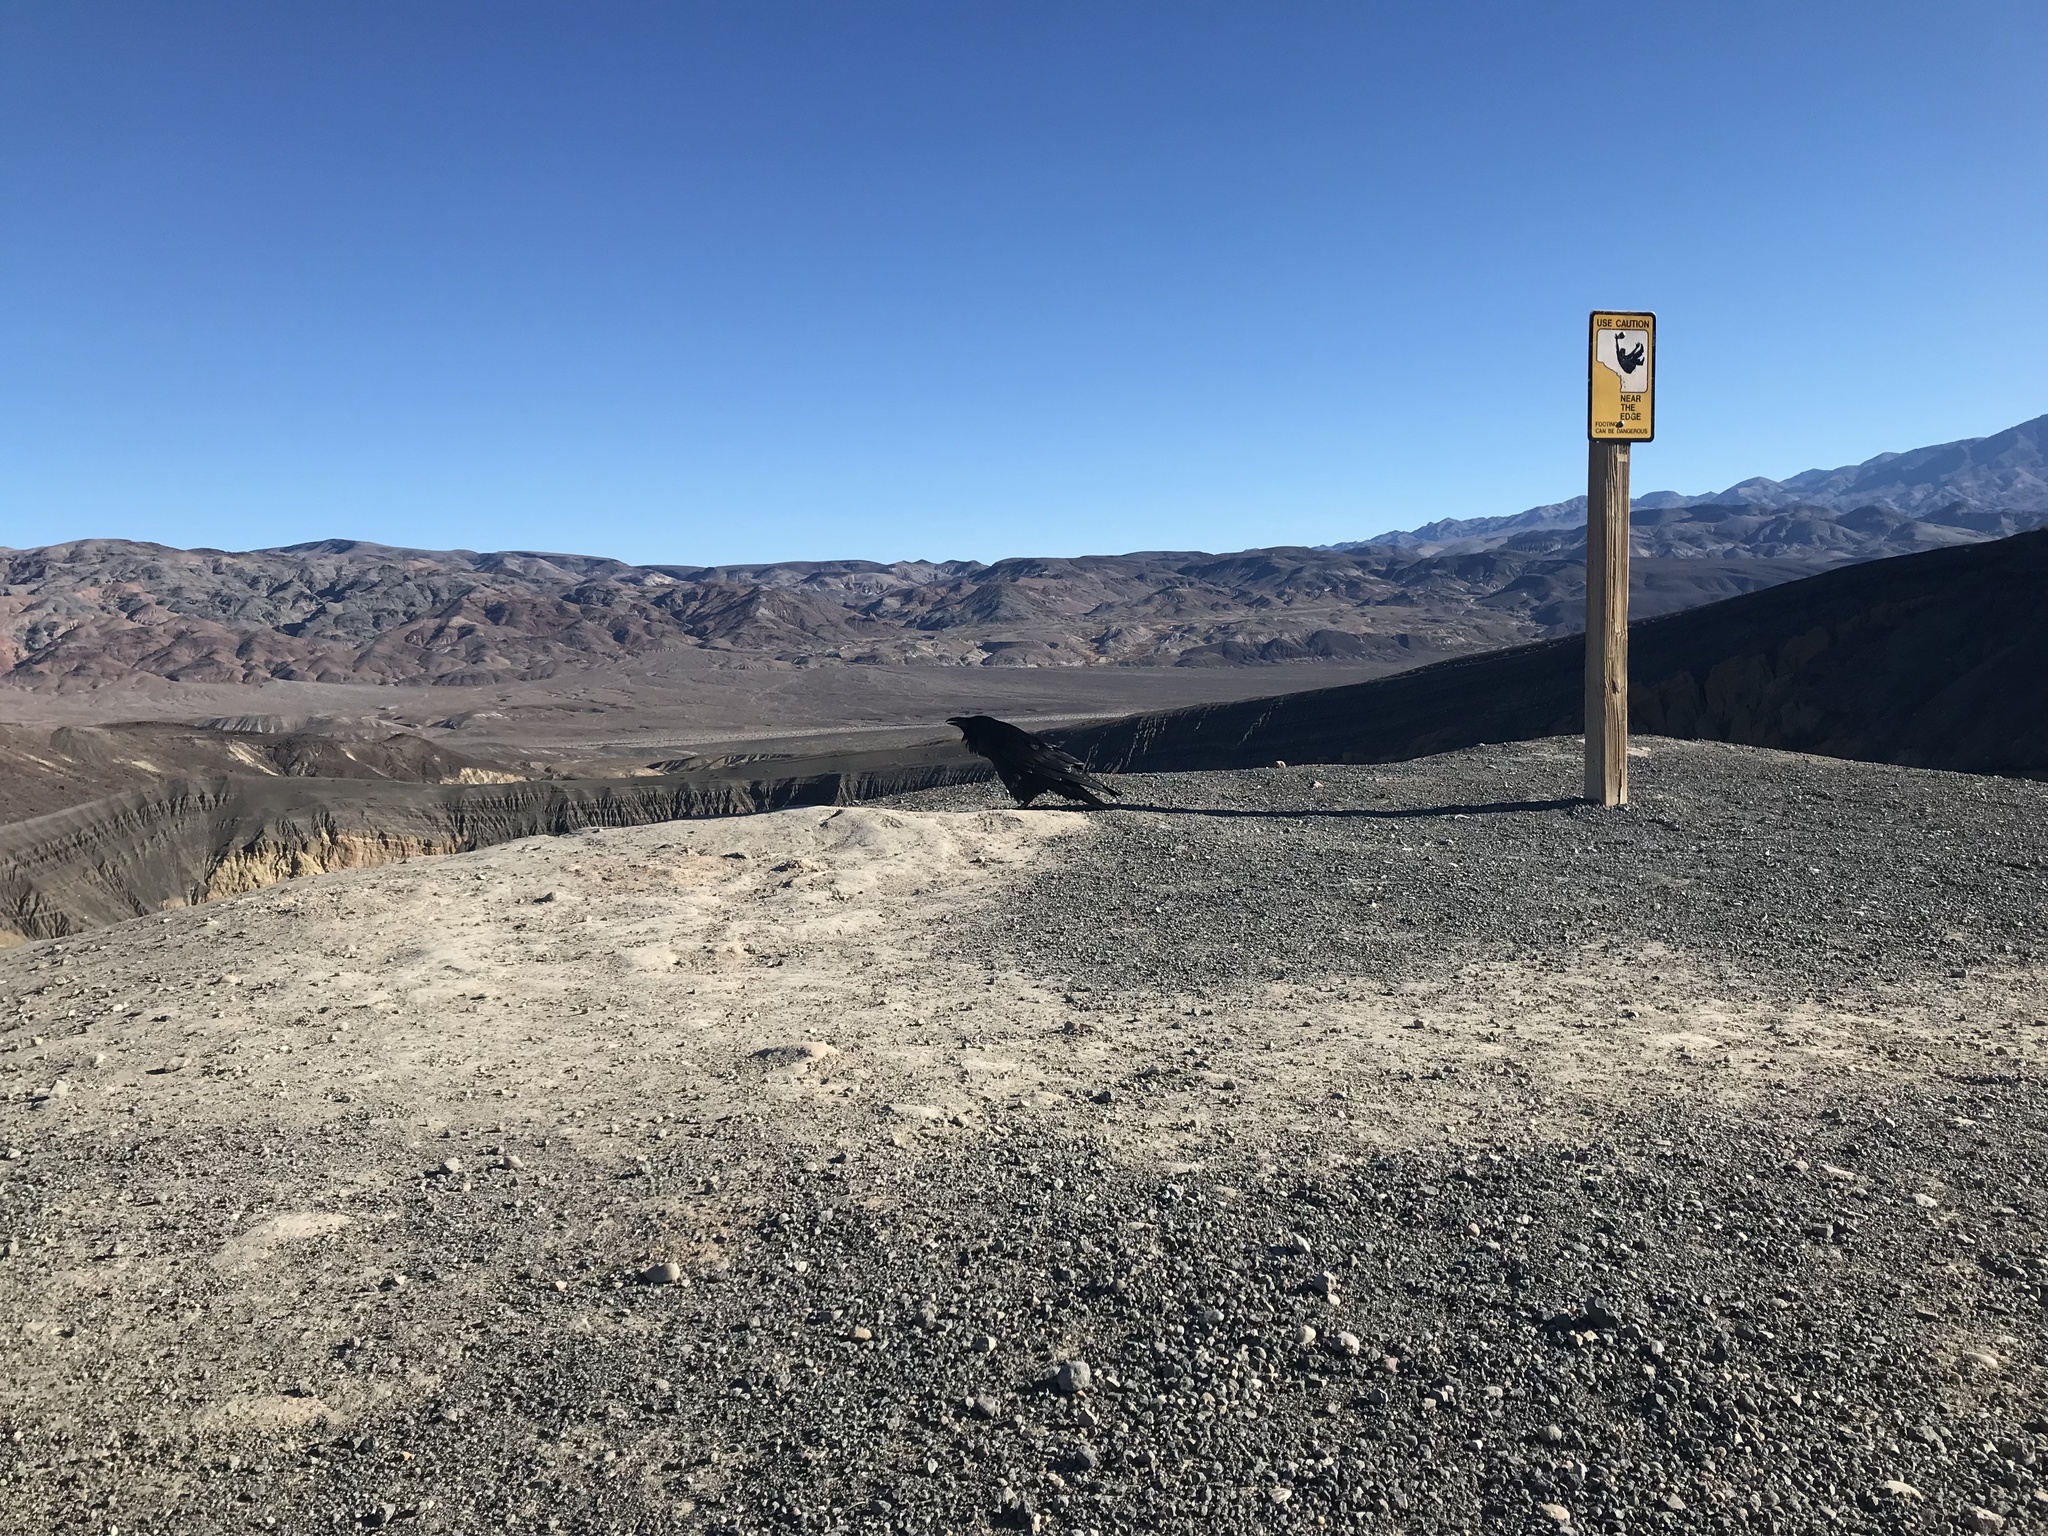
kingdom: Animalia
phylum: Chordata
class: Aves
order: Passeriformes
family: Corvidae
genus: Corvus
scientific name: Corvus corax
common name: Common raven
